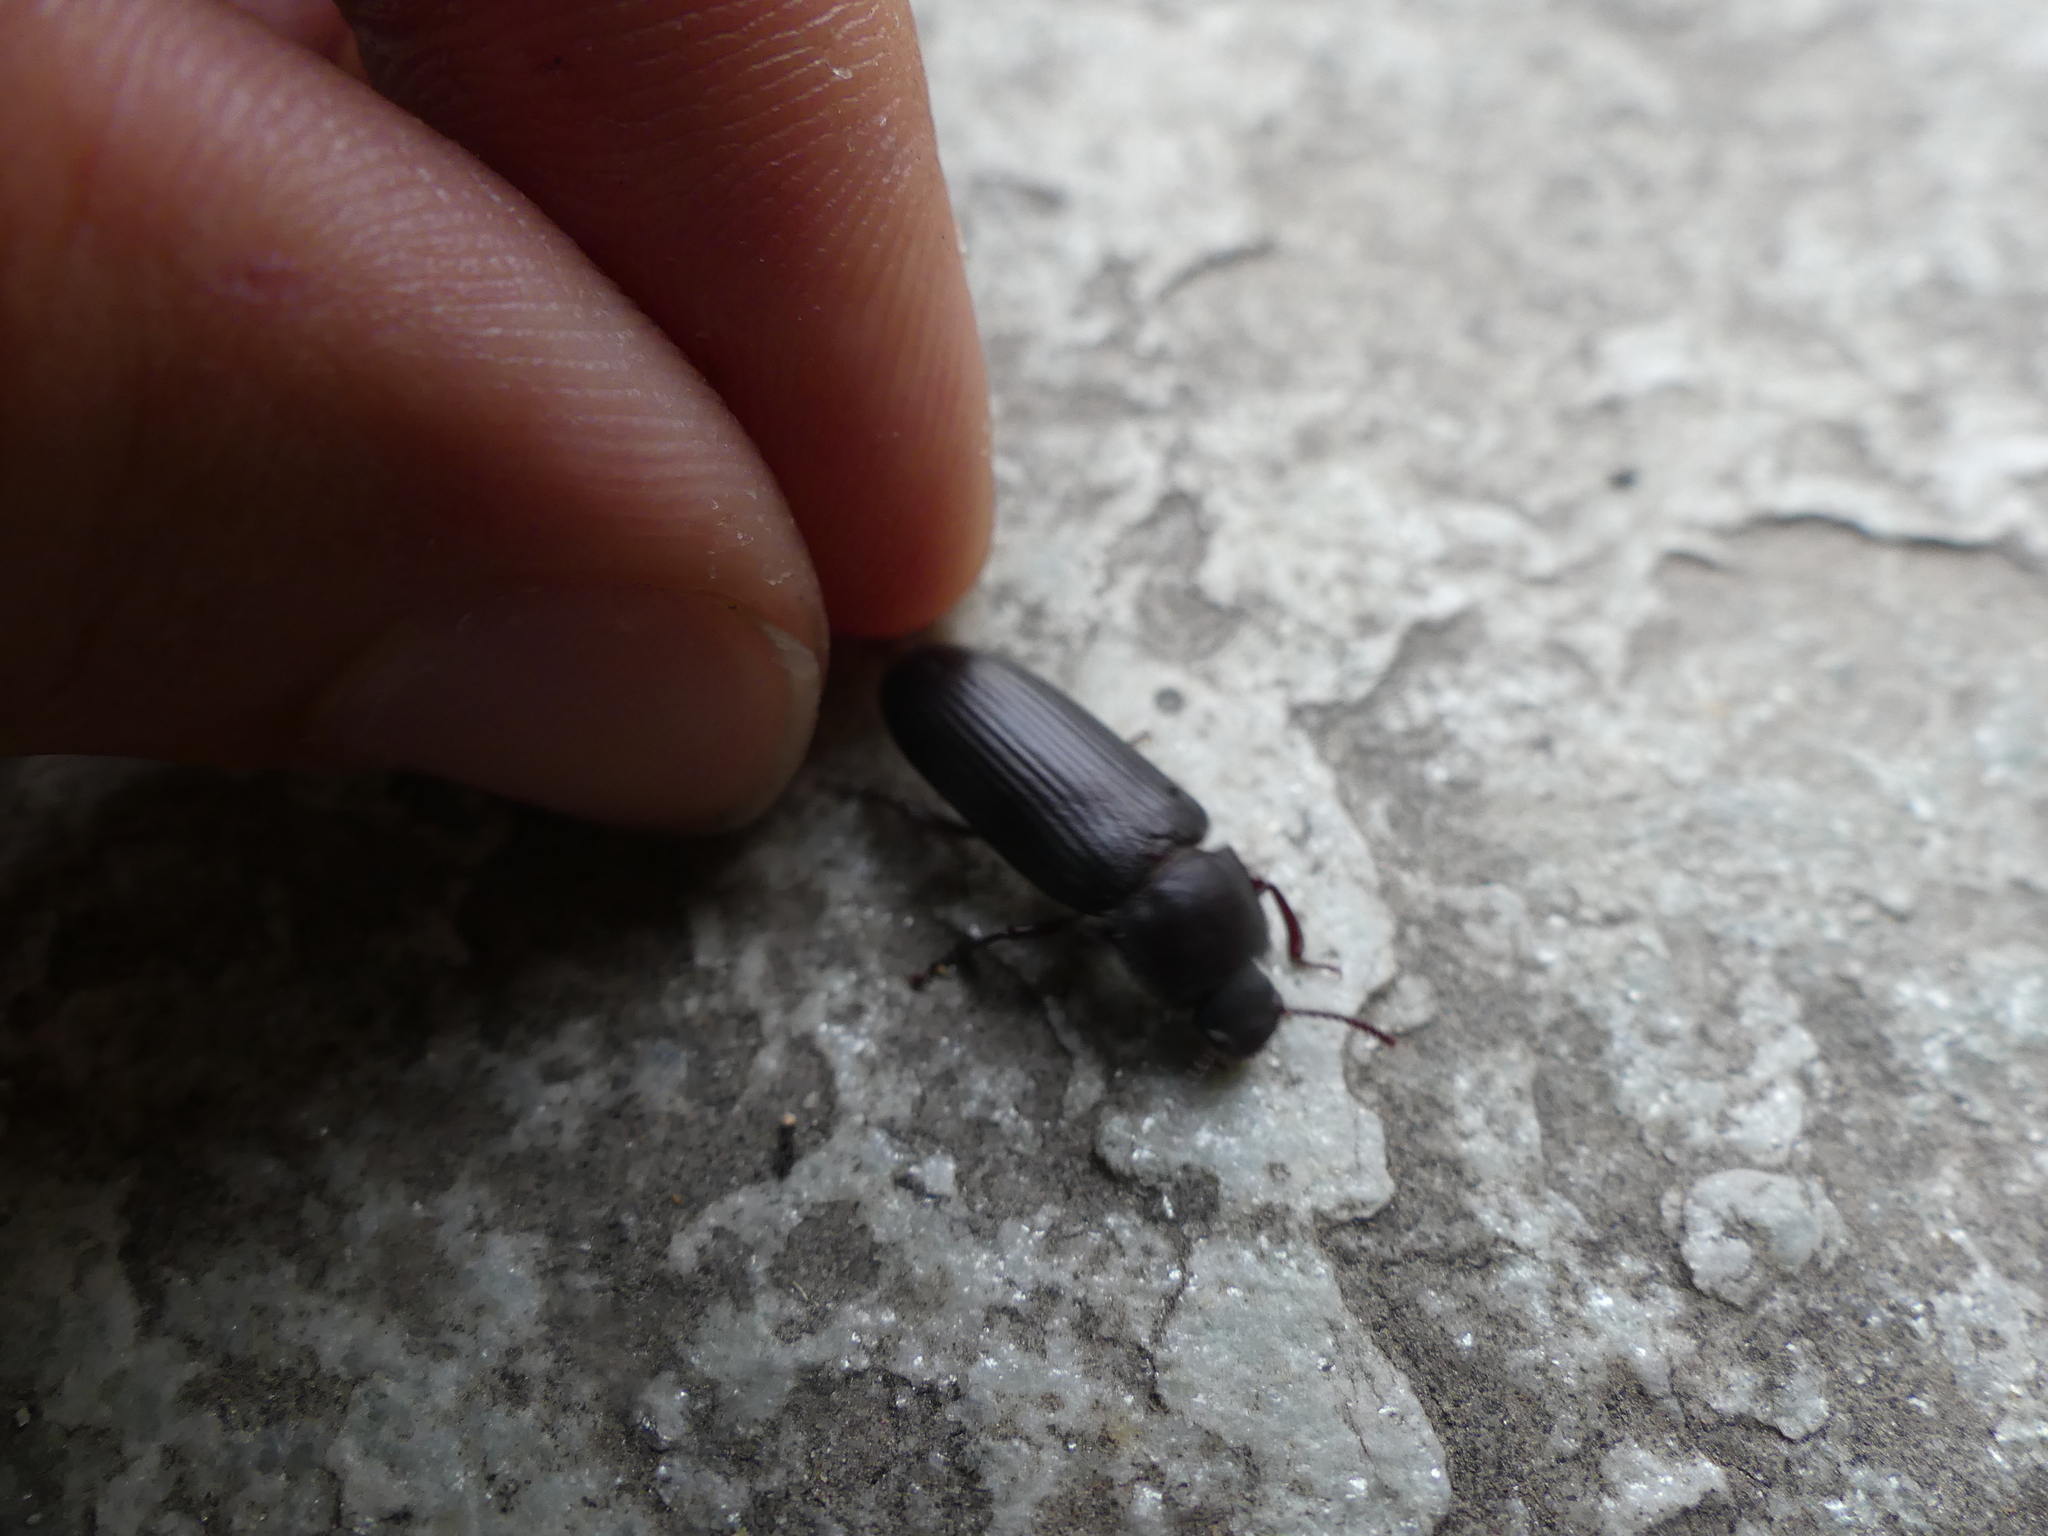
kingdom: Animalia
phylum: Arthropoda
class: Insecta
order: Coleoptera
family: Tenebrionidae
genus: Tenebrio
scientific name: Tenebrio molitor
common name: Hardback beetle
